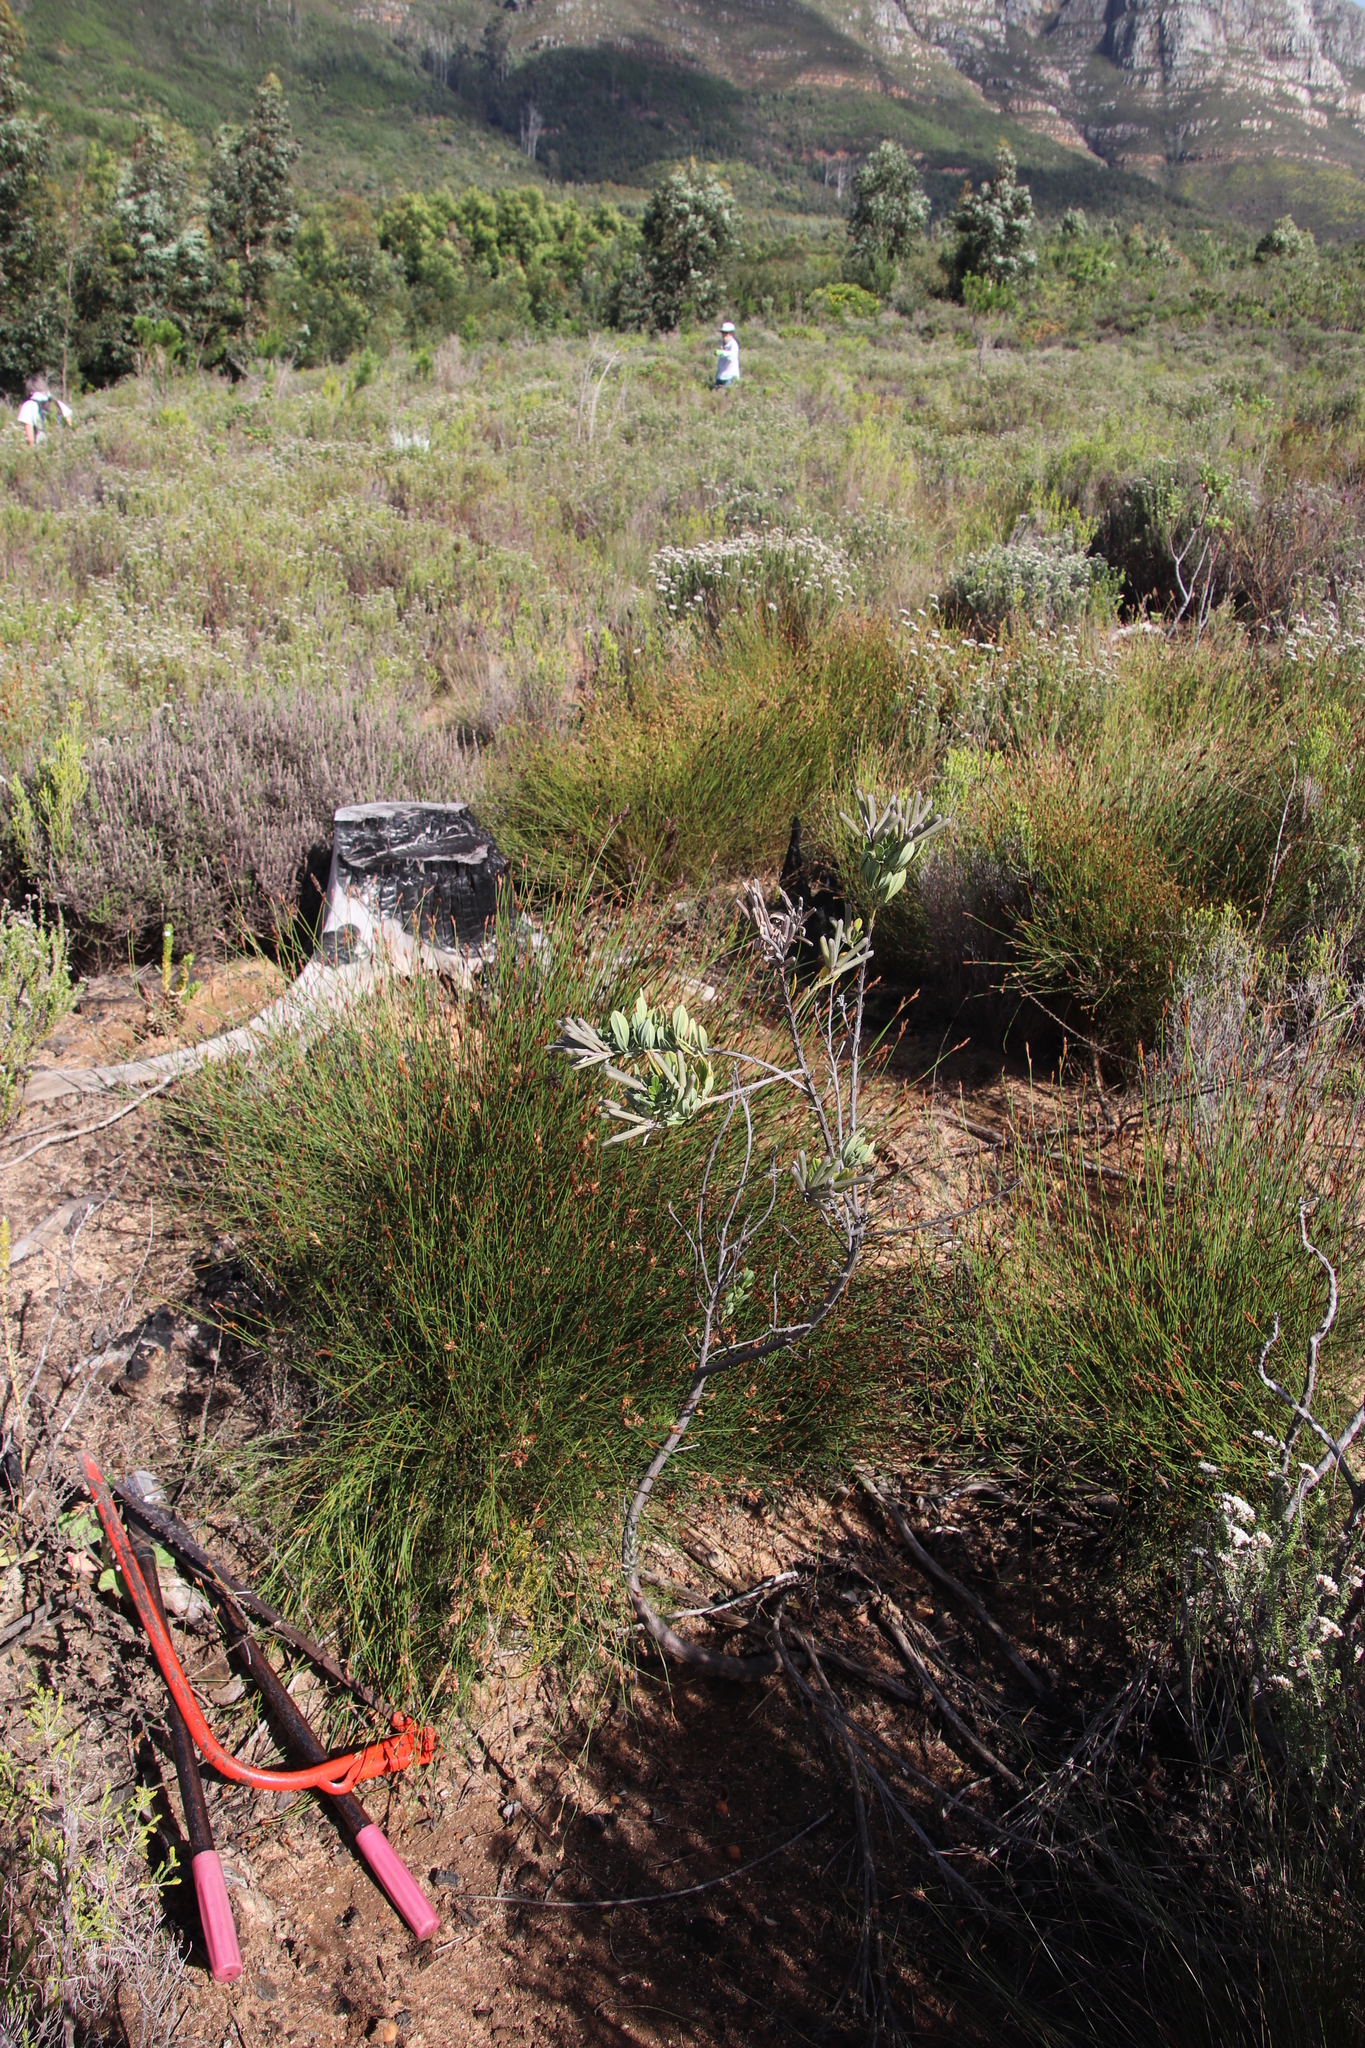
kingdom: Plantae
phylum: Tracheophyta
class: Magnoliopsida
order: Fabales
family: Fabaceae
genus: Indigofera
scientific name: Indigofera cytisoides
